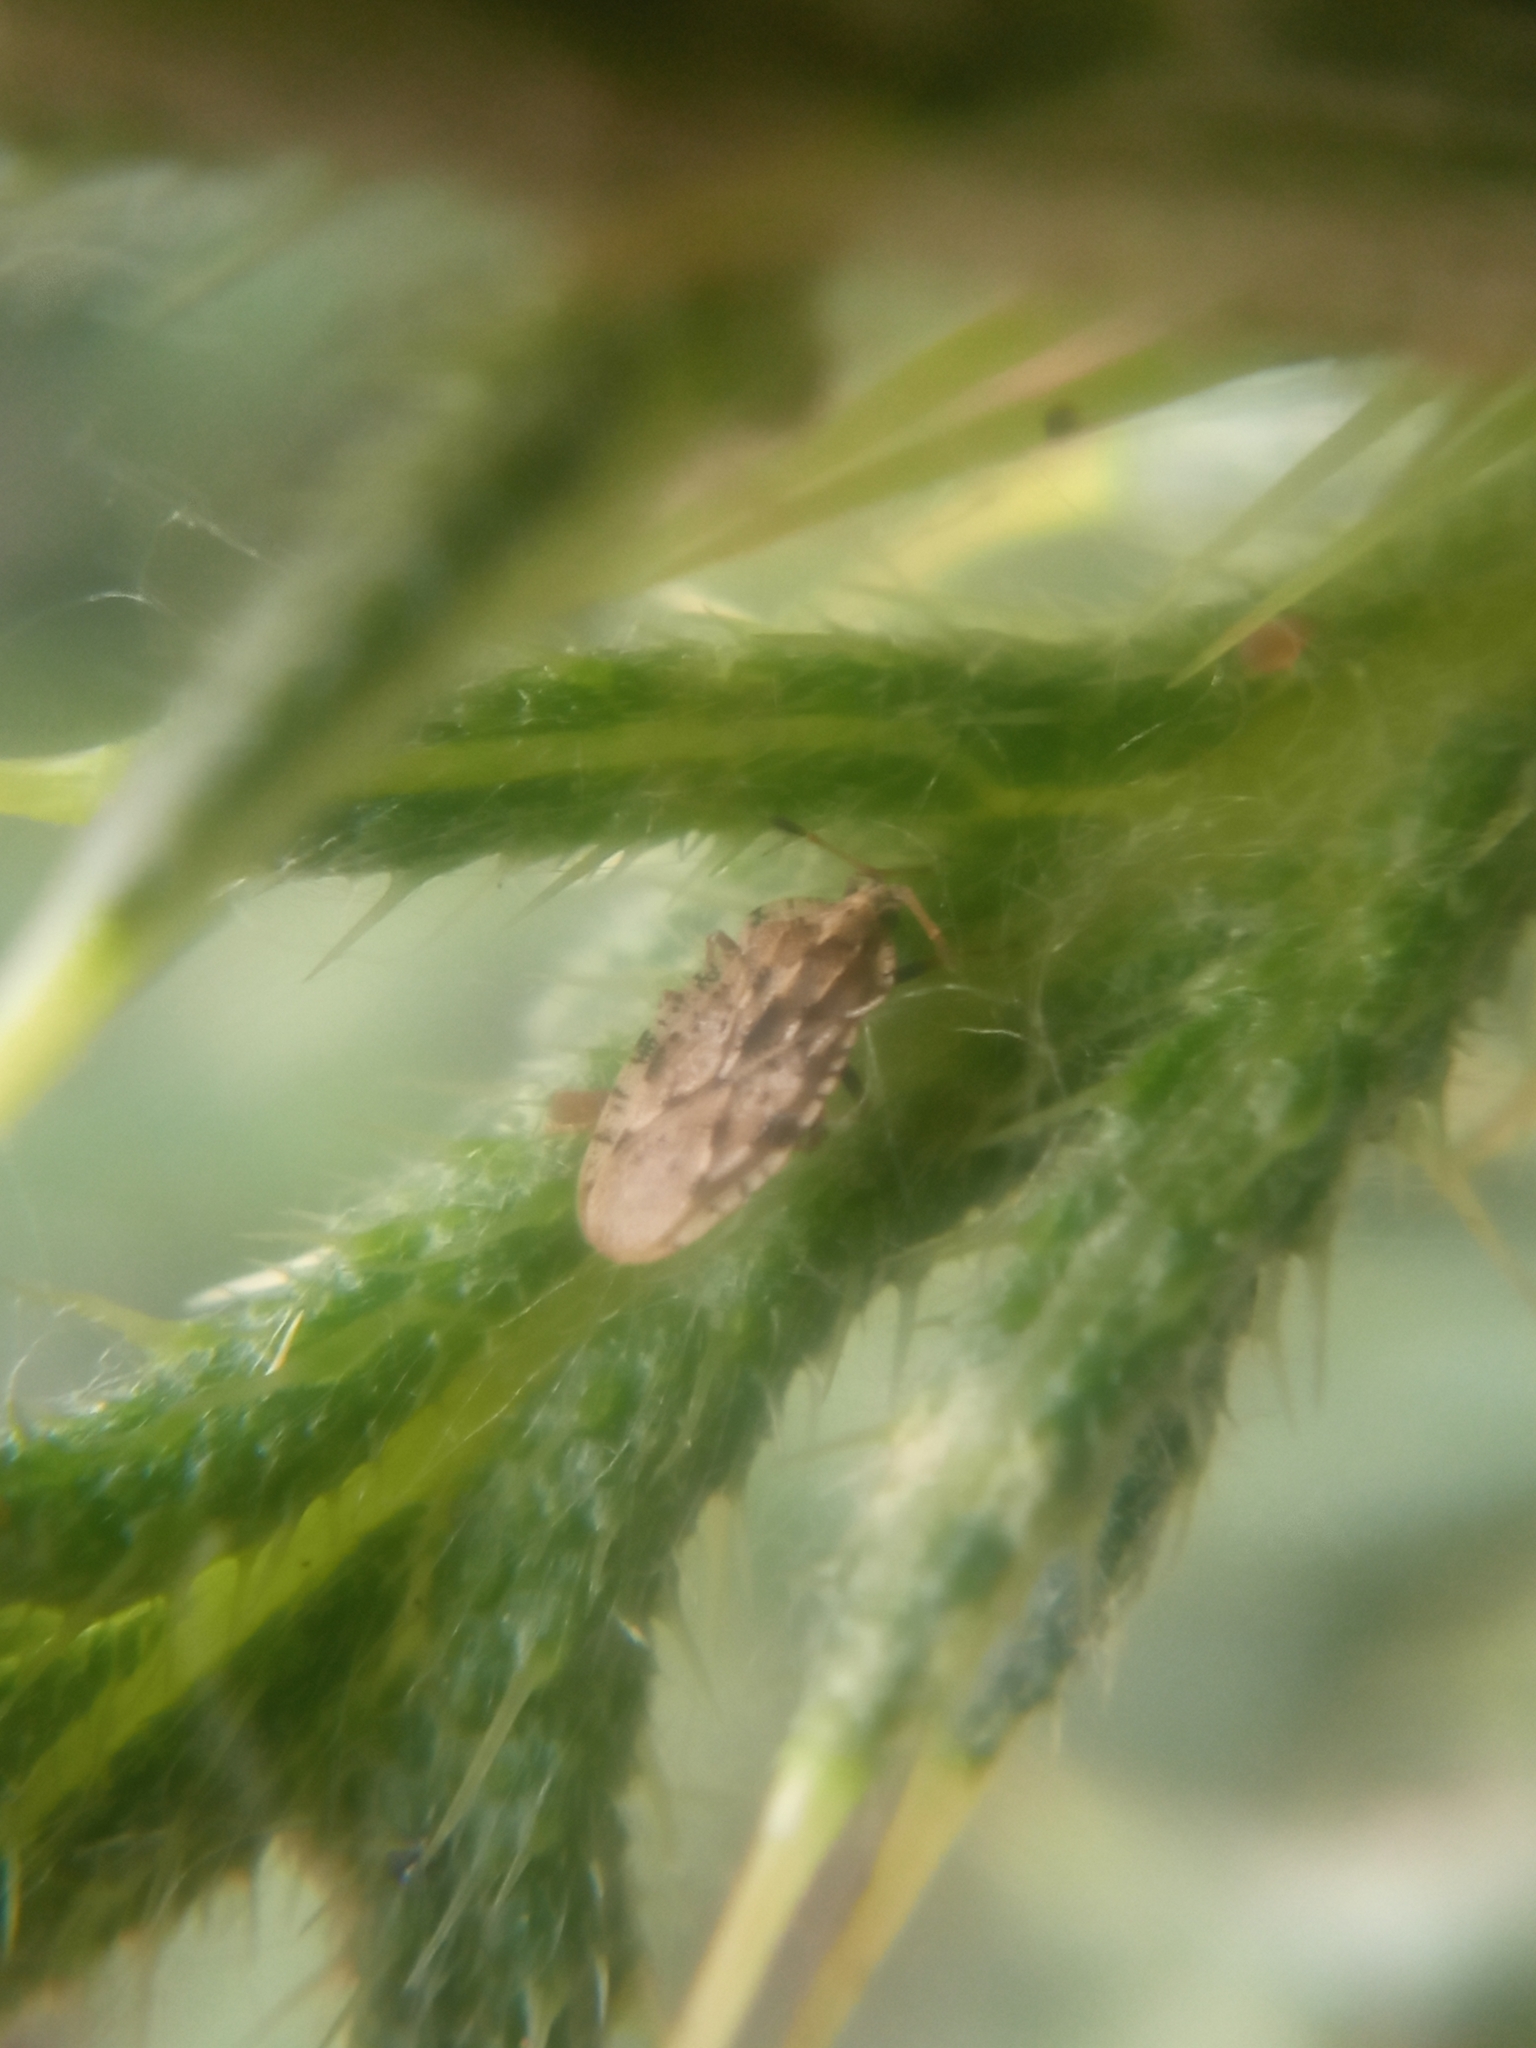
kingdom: Animalia
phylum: Arthropoda
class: Insecta
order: Hemiptera
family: Tingidae
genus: Tingis
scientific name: Tingis cardui
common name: Spear thistle lacebug
